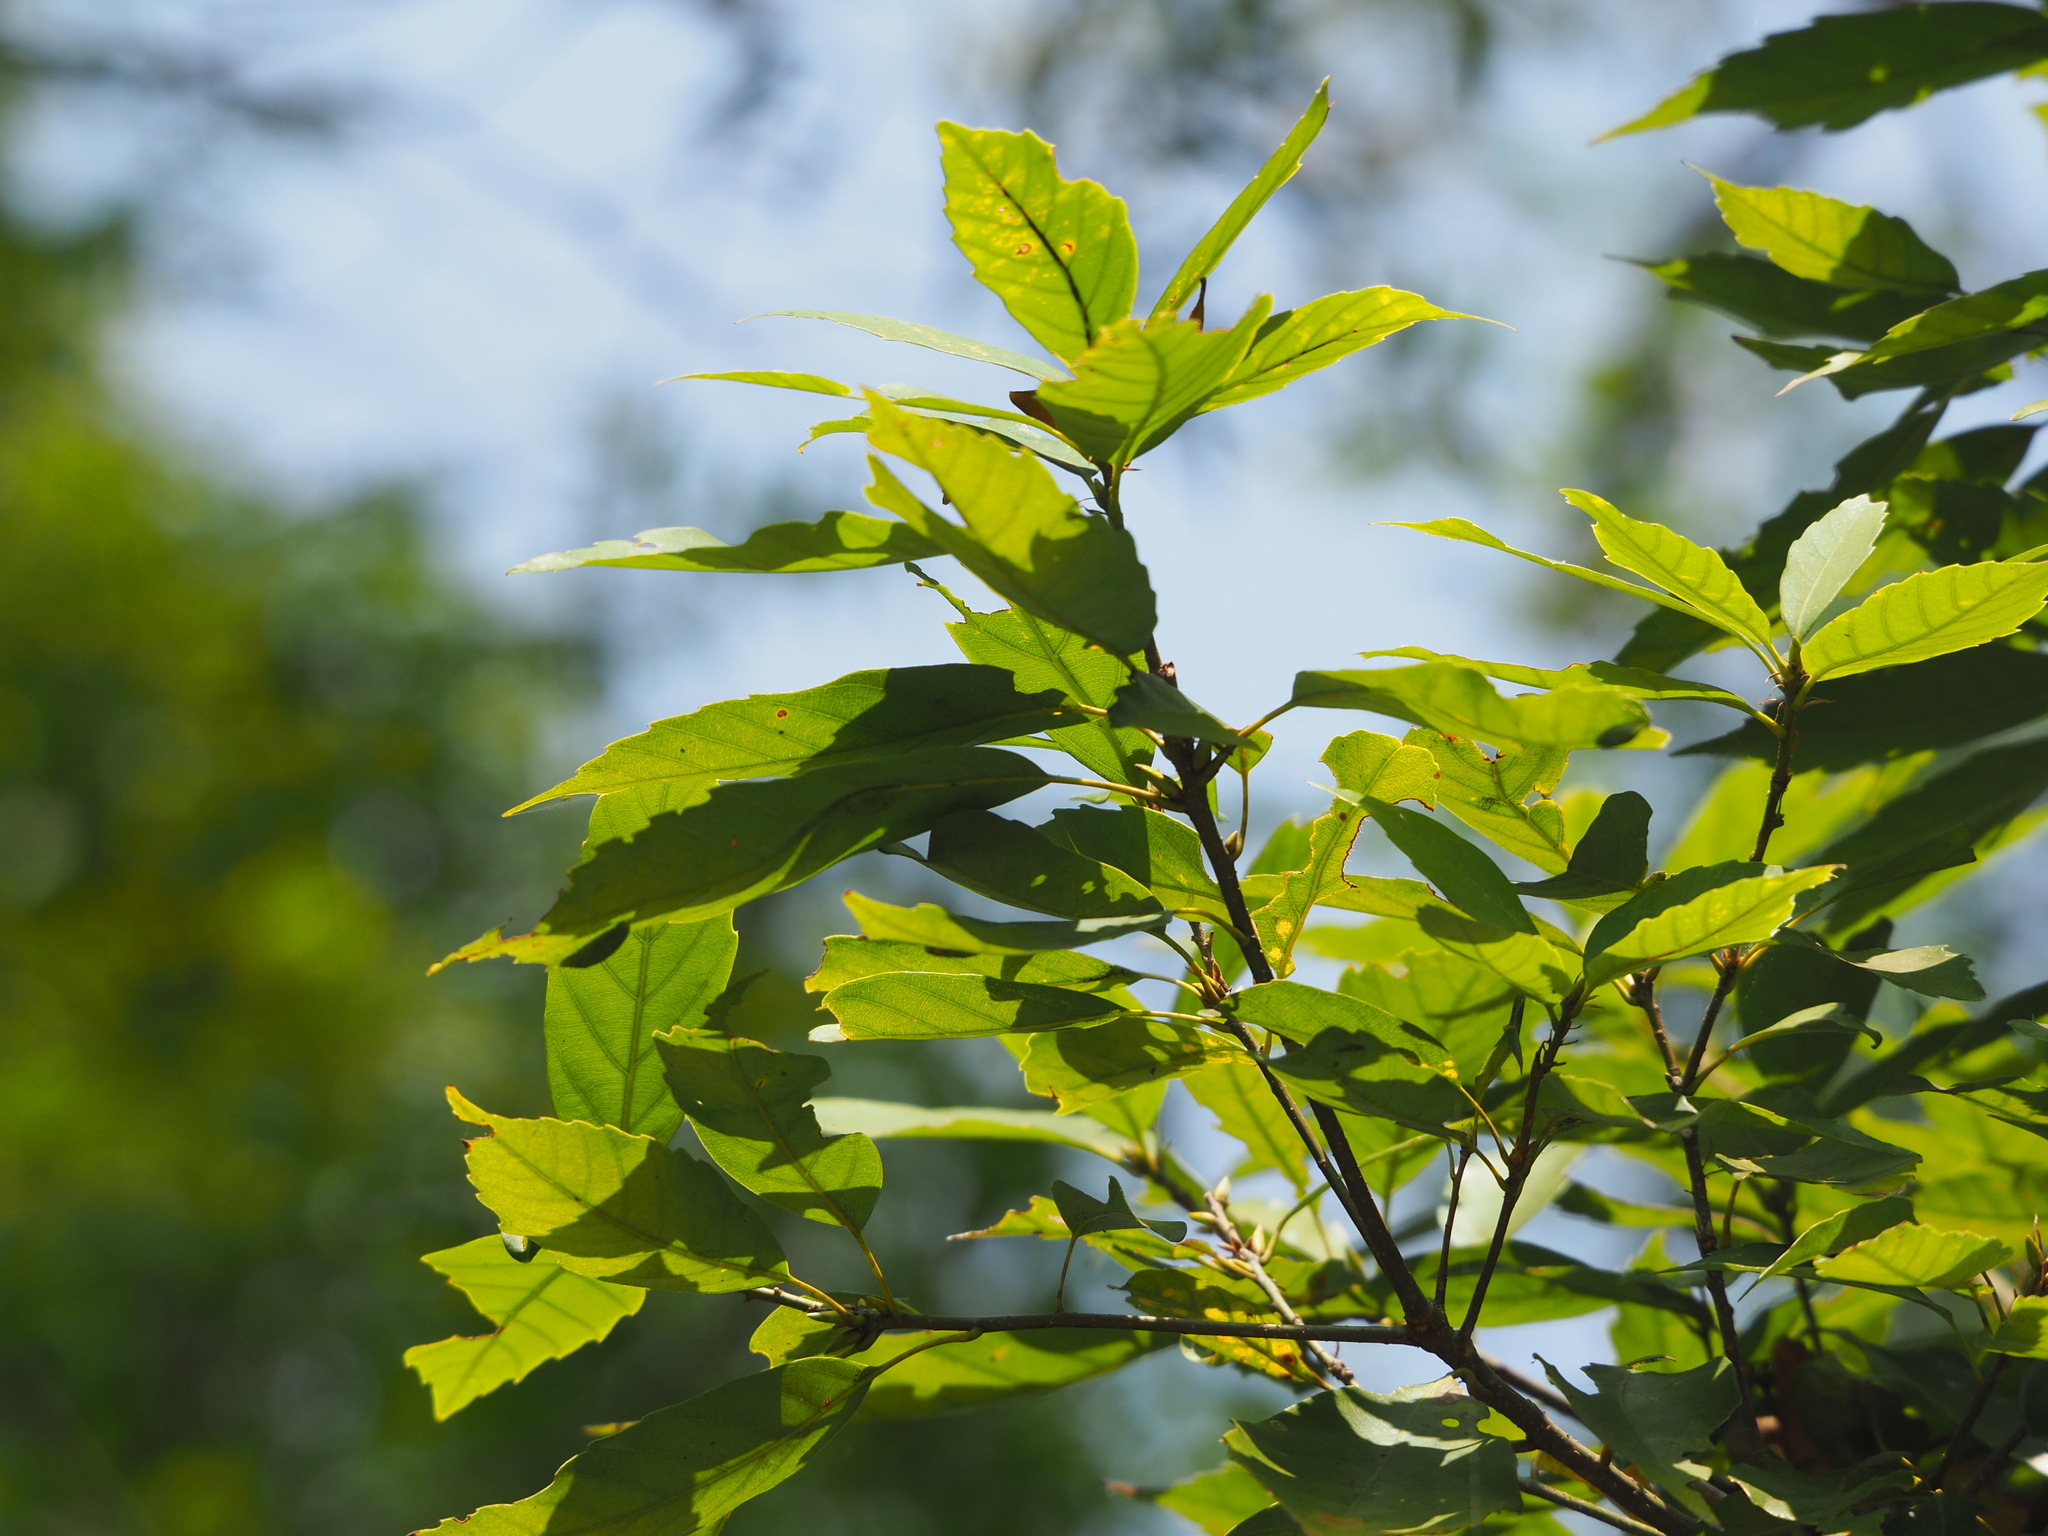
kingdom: Plantae
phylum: Tracheophyta
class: Magnoliopsida
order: Fagales
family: Fagaceae
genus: Quercus
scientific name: Quercus glauca
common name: Ring-cup oak
